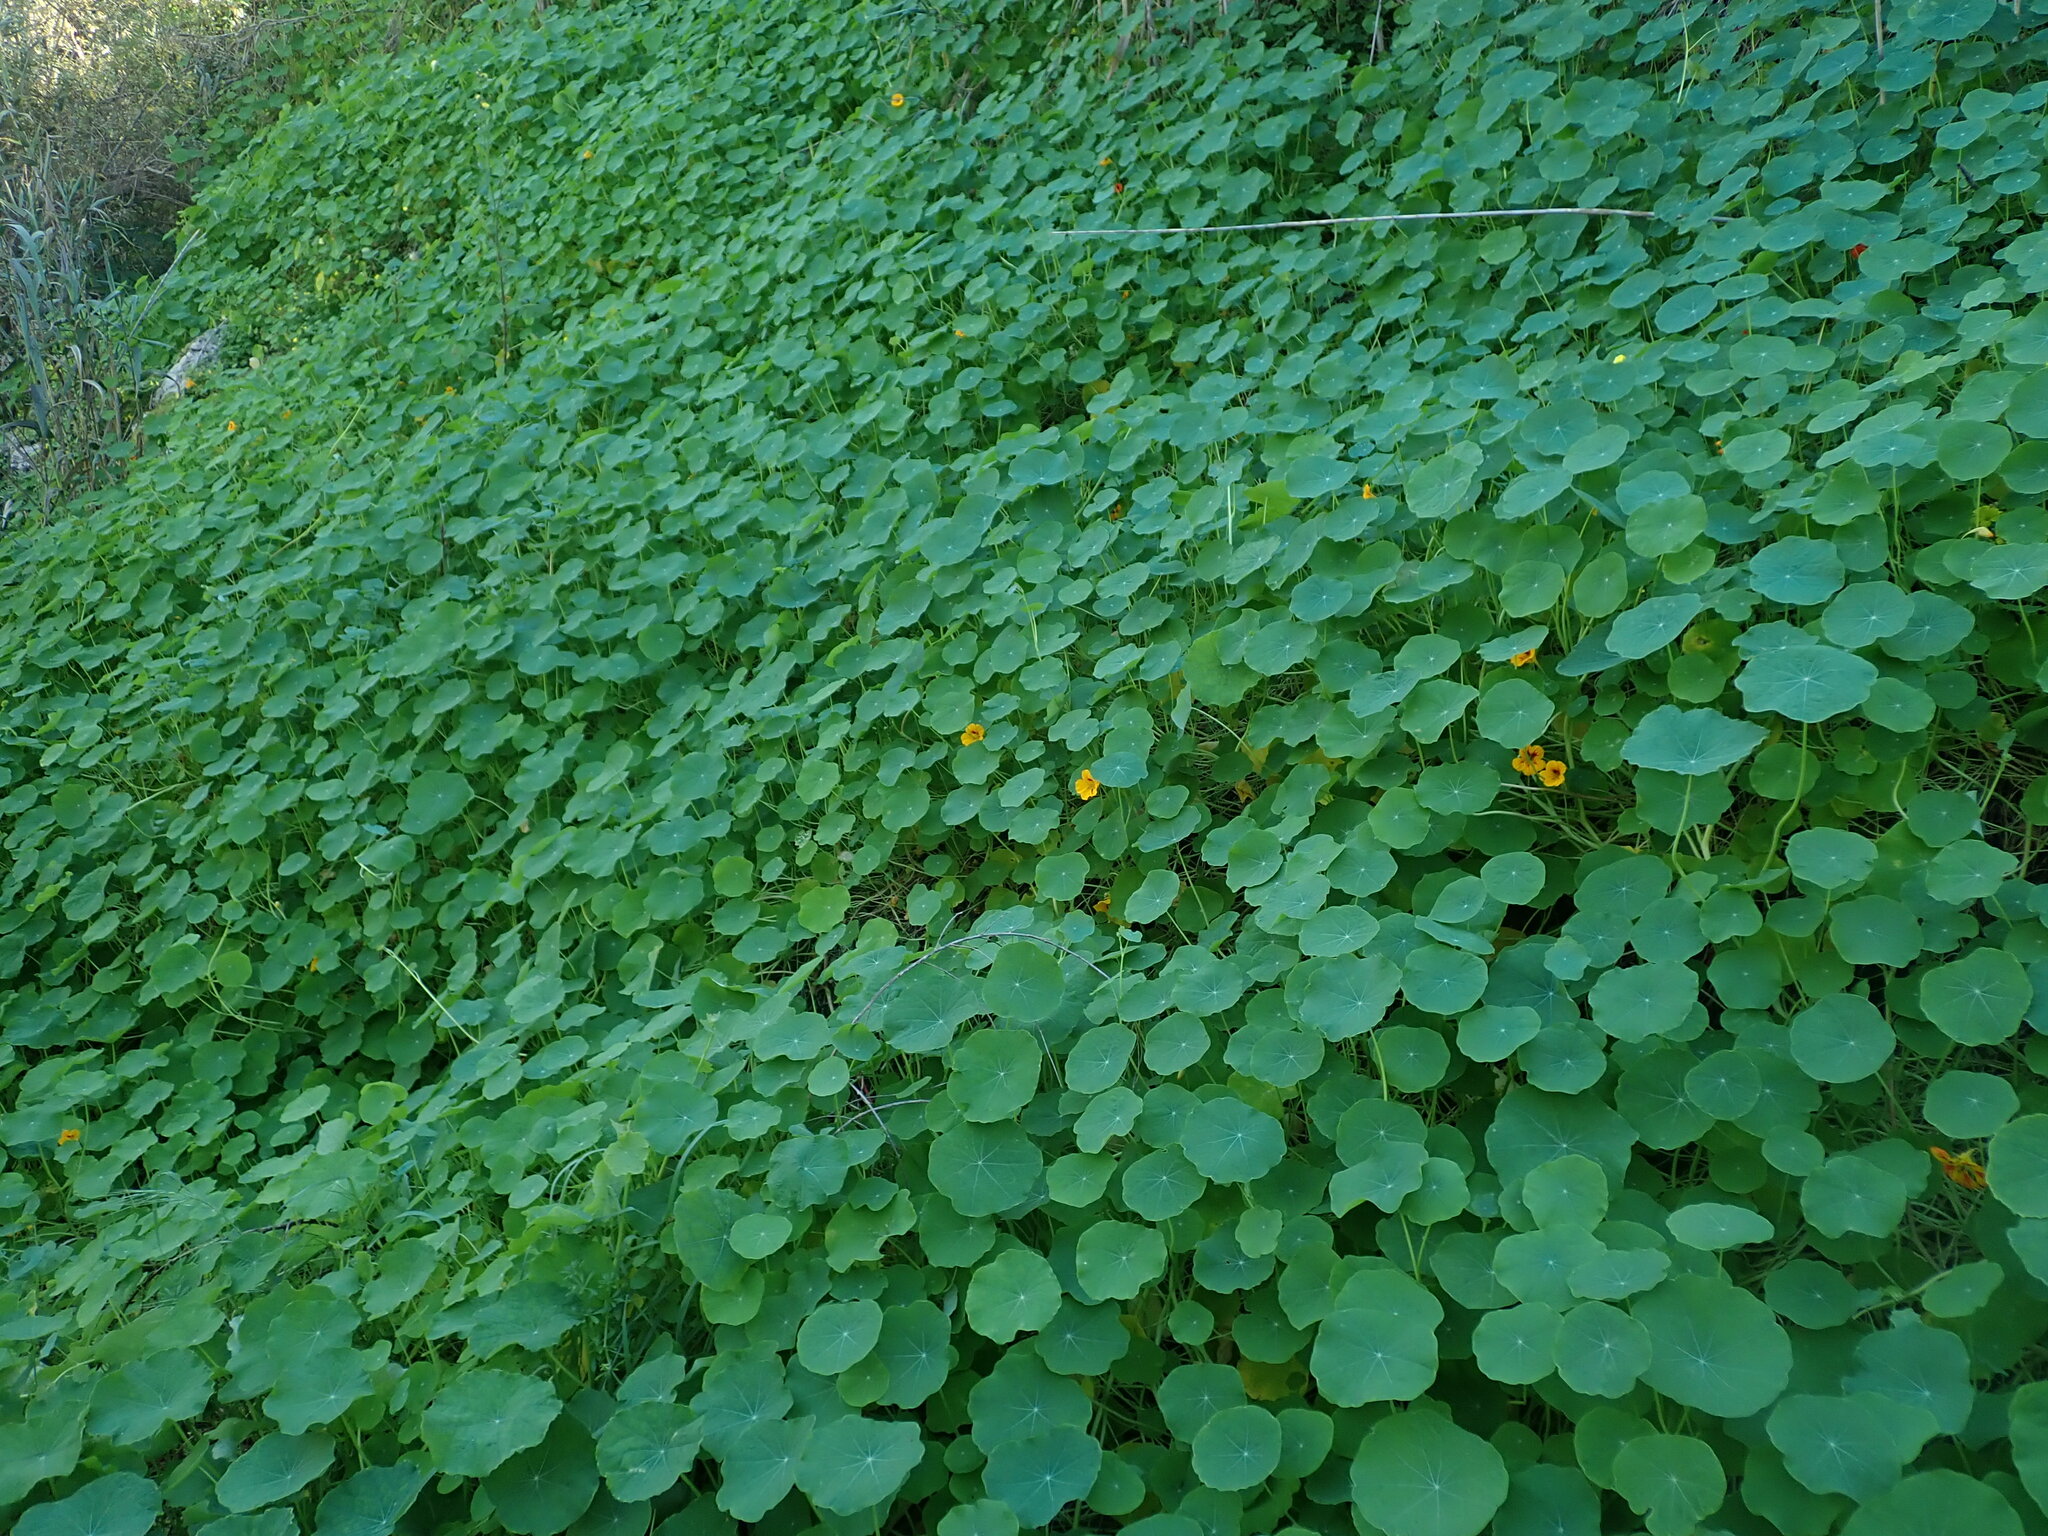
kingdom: Plantae
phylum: Tracheophyta
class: Magnoliopsida
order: Brassicales
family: Tropaeolaceae
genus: Tropaeolum
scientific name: Tropaeolum majus
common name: Nasturtium
